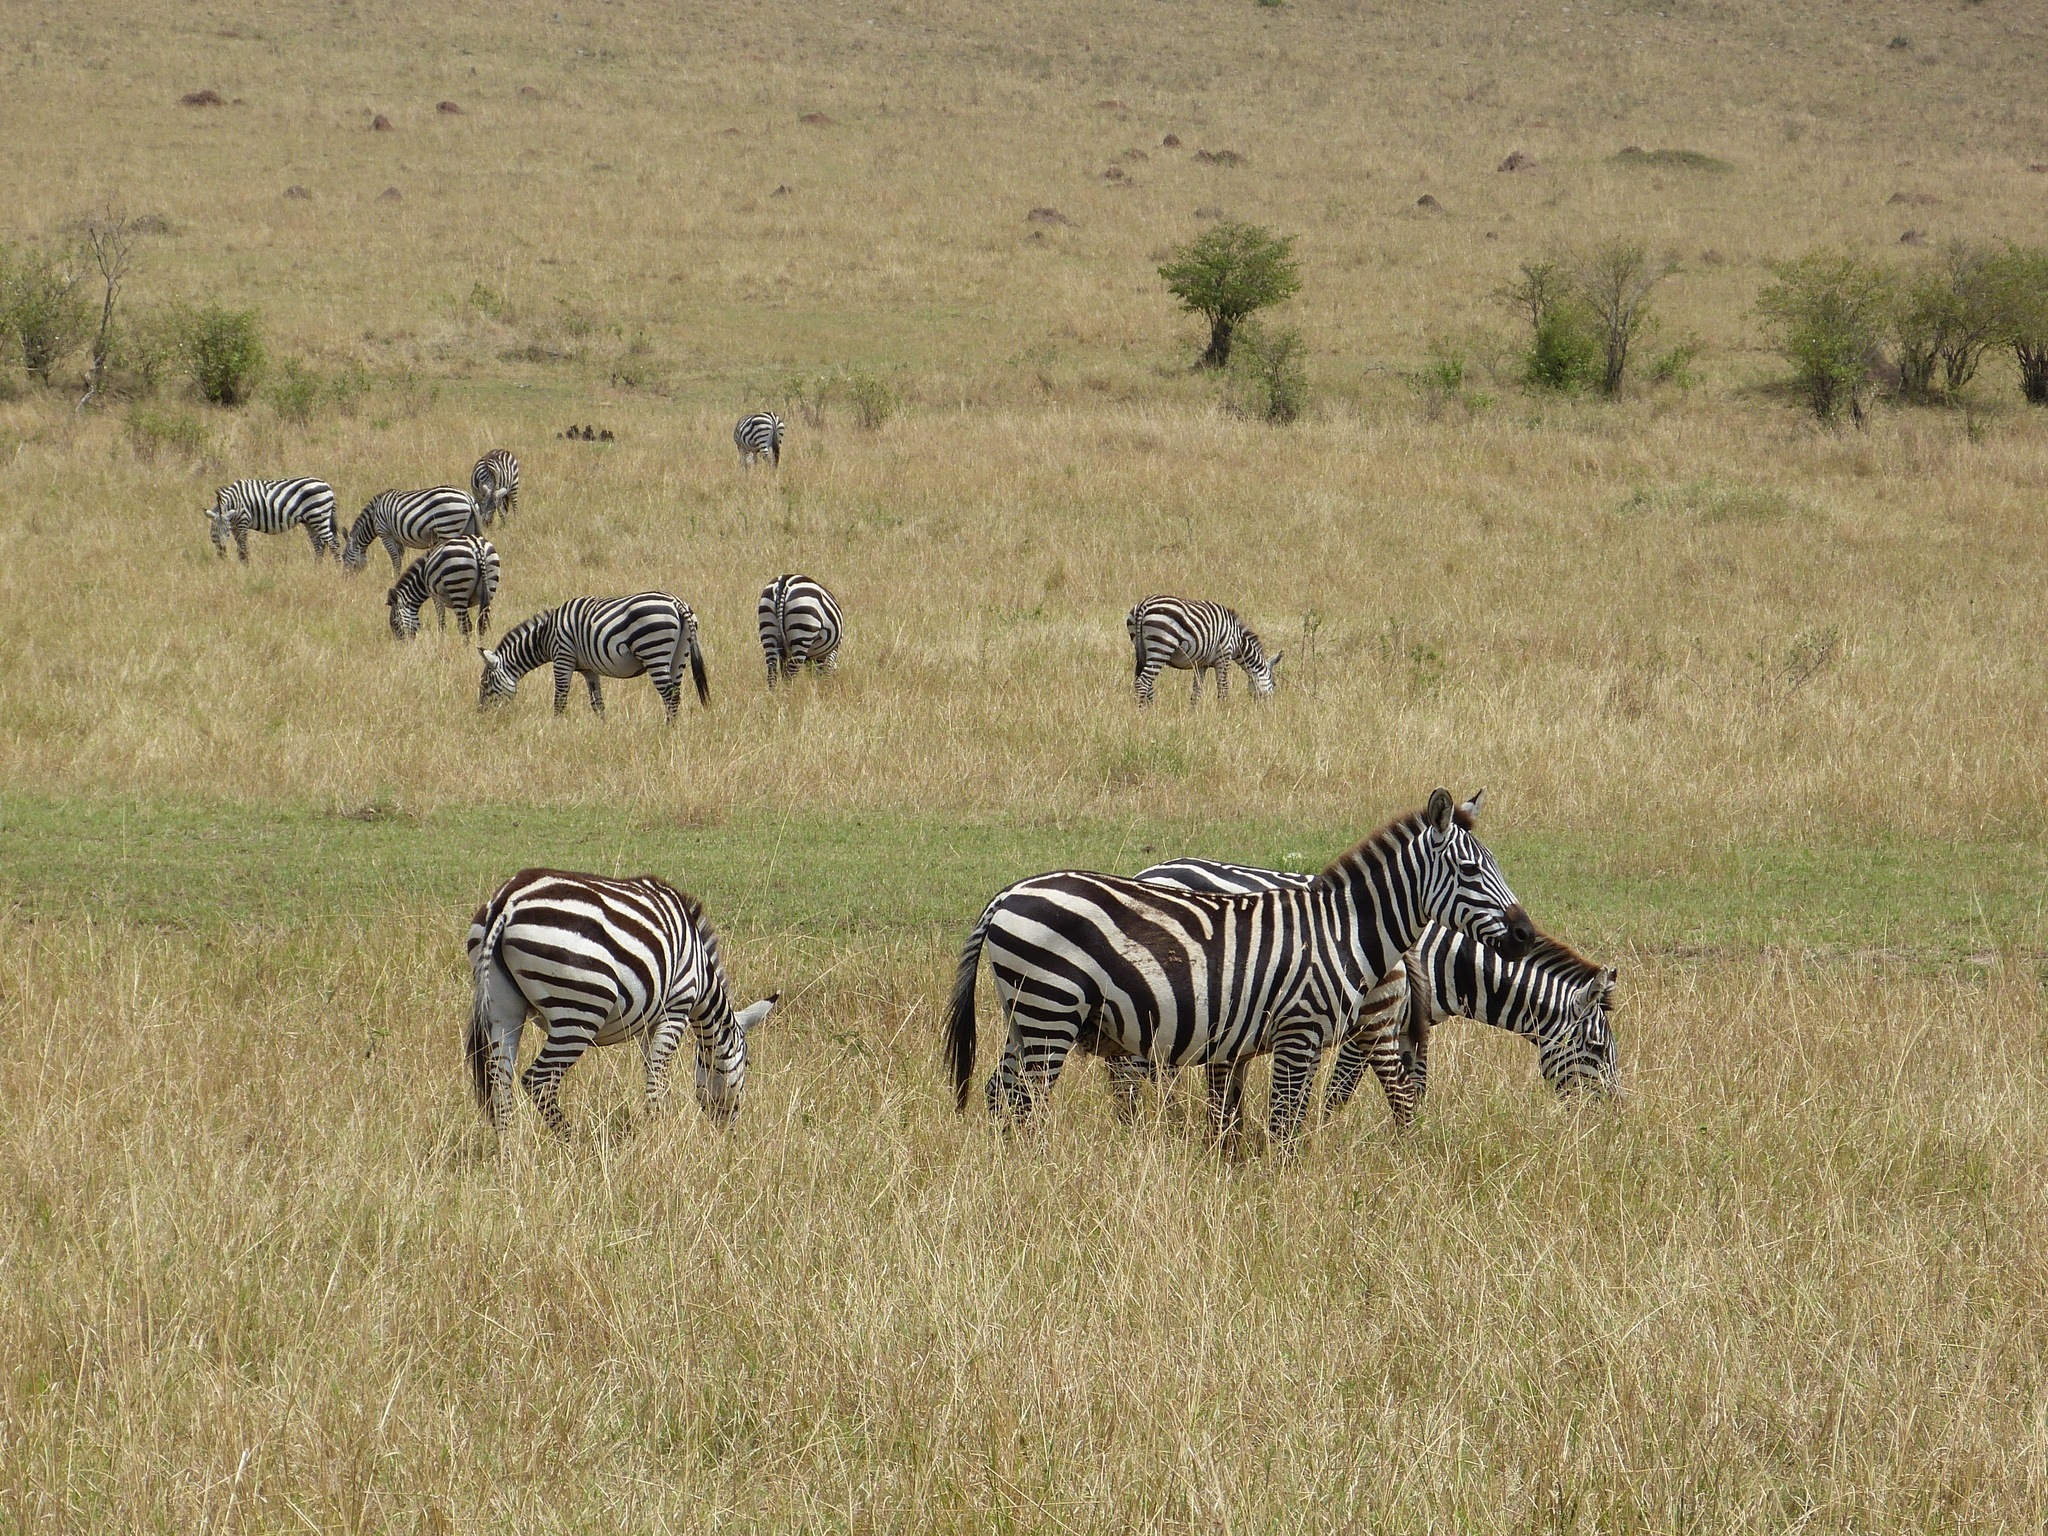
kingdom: Animalia
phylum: Chordata
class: Mammalia
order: Perissodactyla
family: Equidae
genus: Equus
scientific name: Equus quagga
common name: Plains zebra
